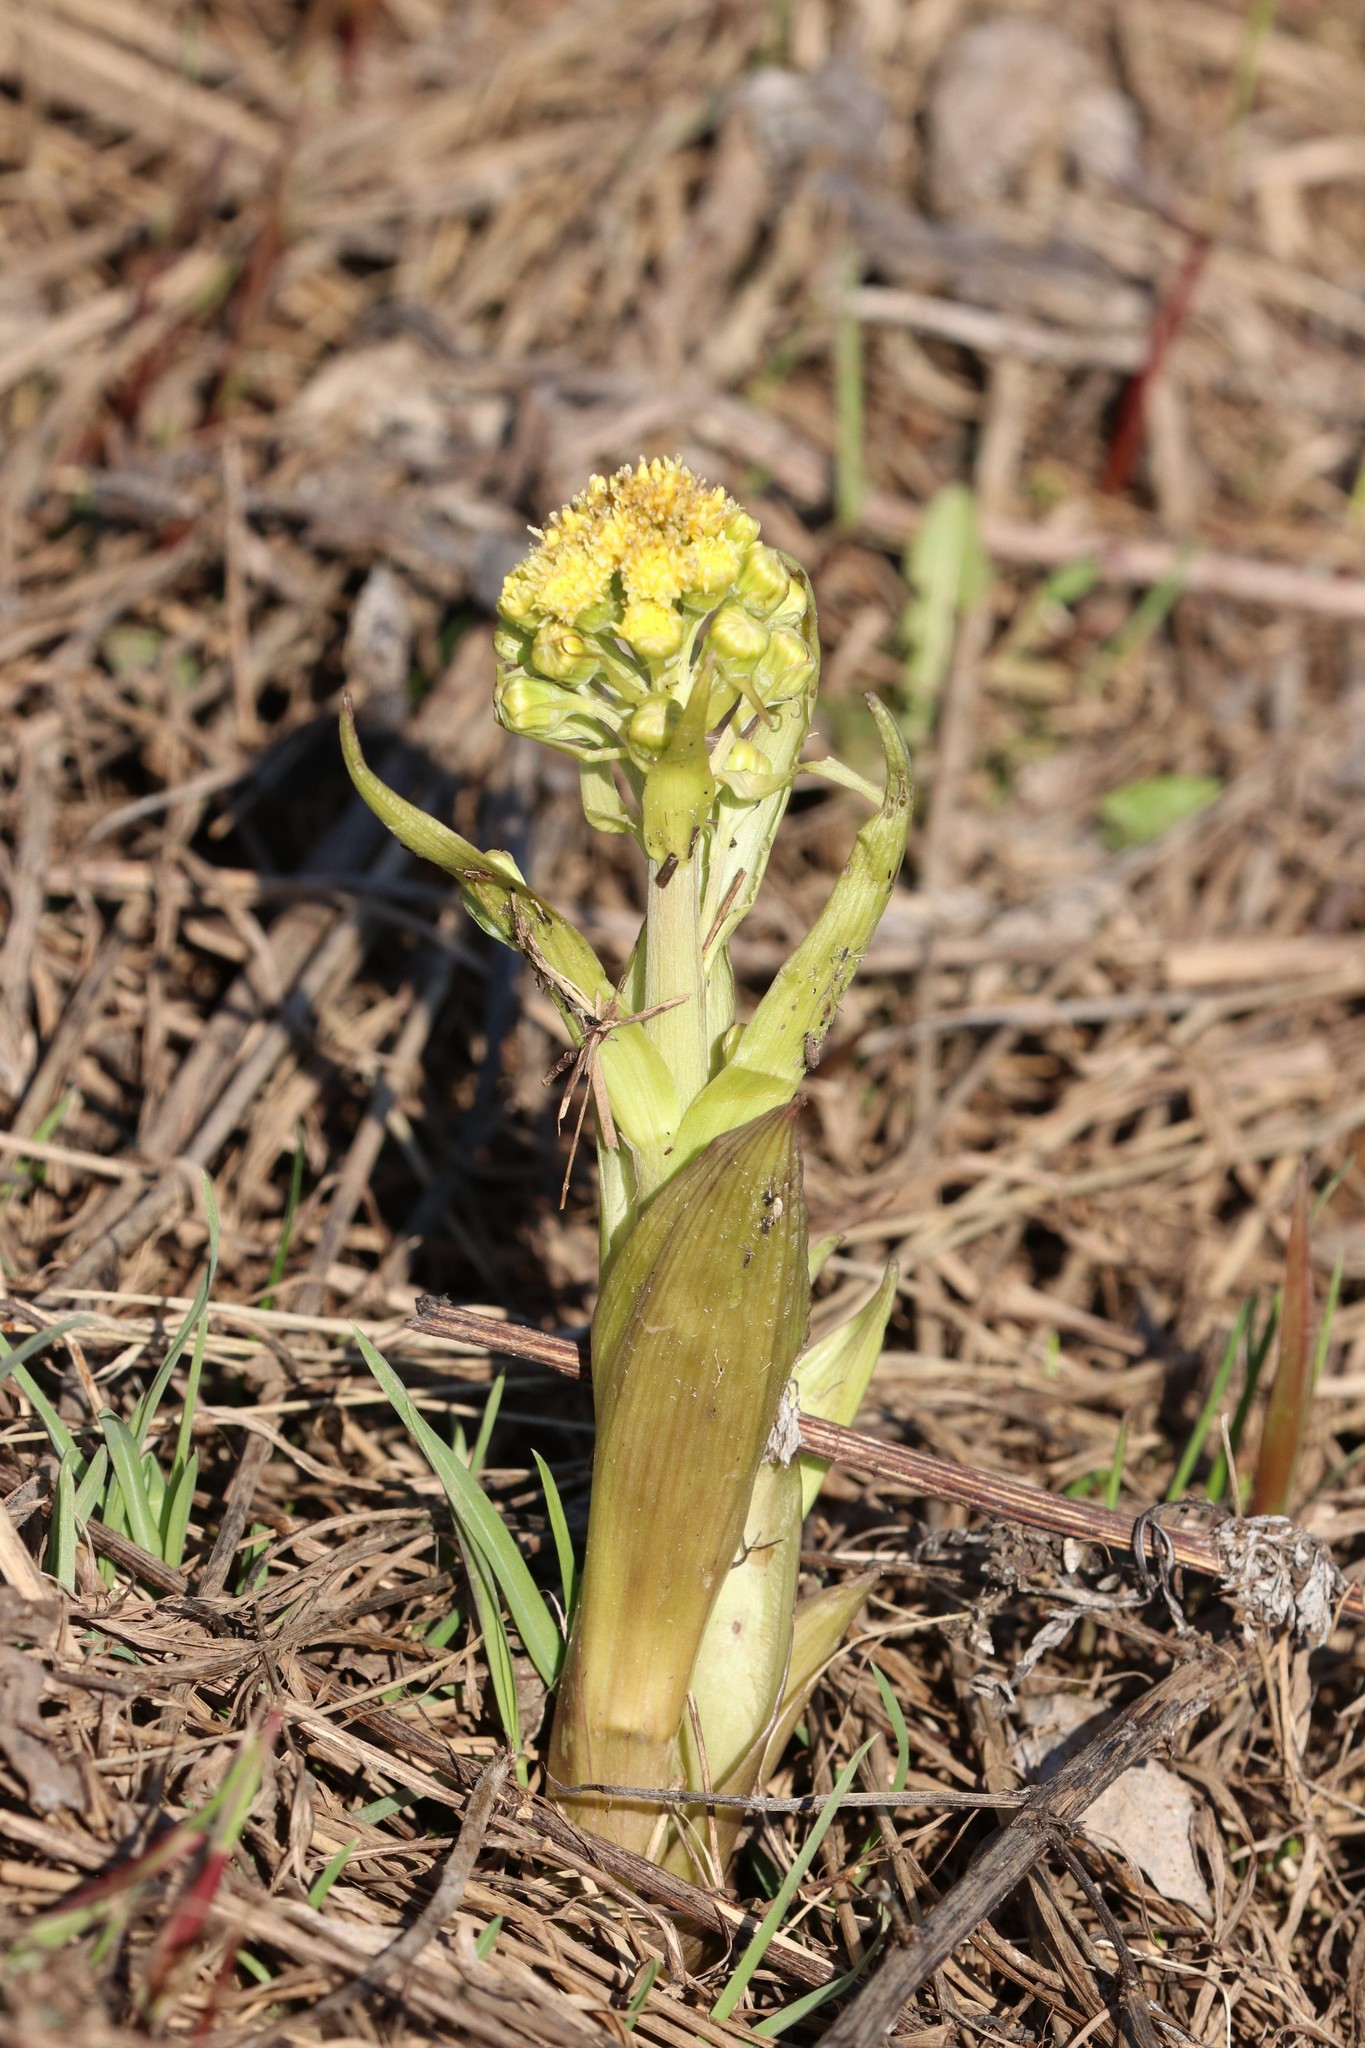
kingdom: Plantae
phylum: Tracheophyta
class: Magnoliopsida
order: Asterales
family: Asteraceae
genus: Petasites
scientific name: Petasites spurius
